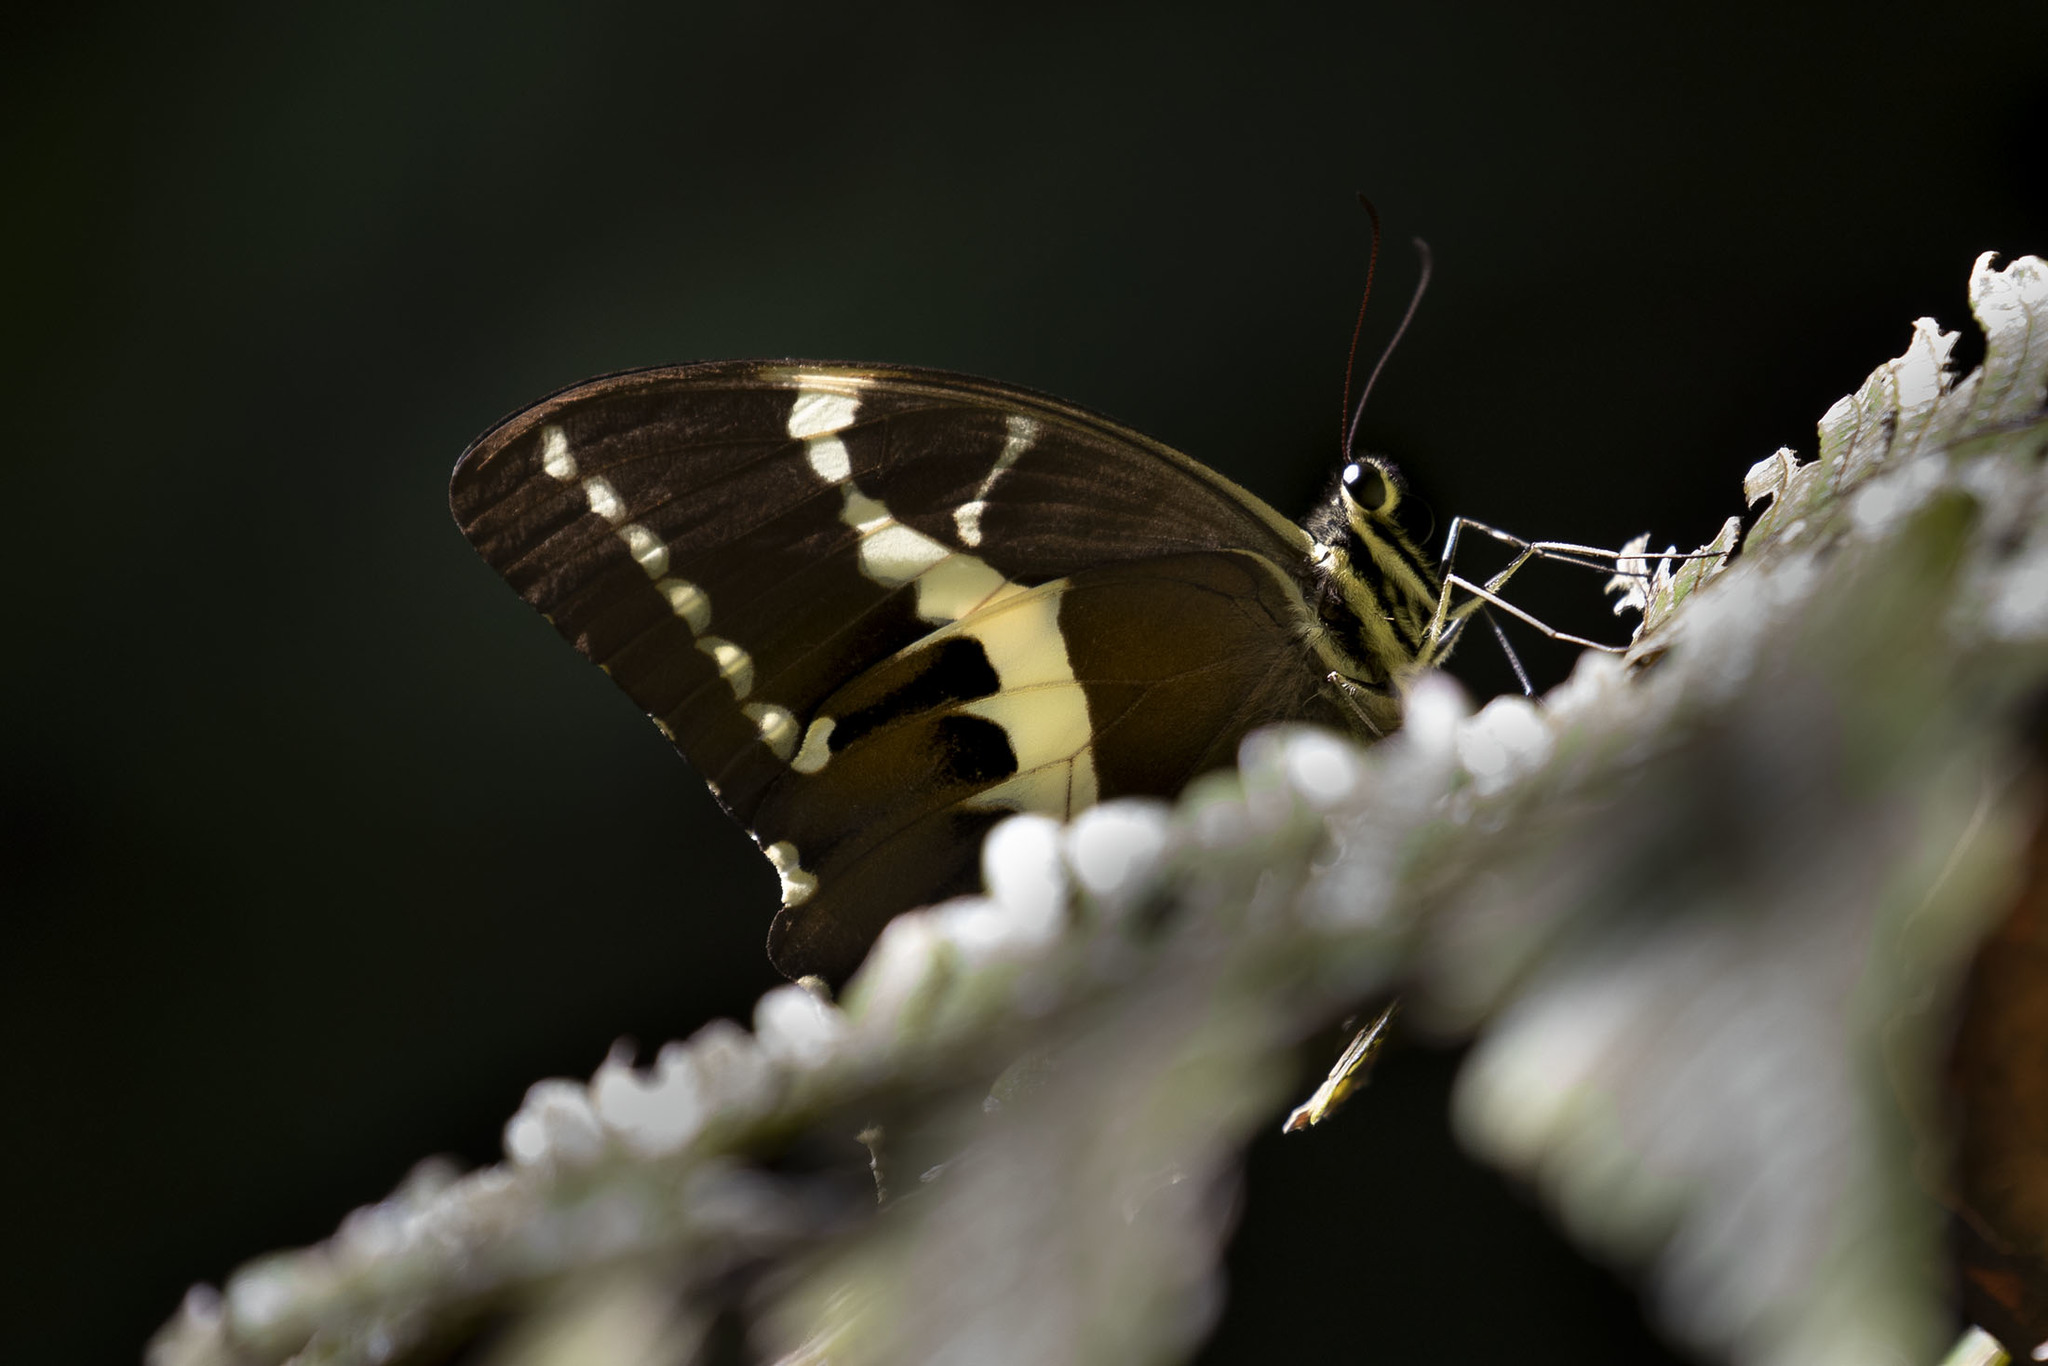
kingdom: Animalia
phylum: Arthropoda
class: Insecta
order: Lepidoptera
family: Papilionidae
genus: Papilio
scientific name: Papilio delalandei
